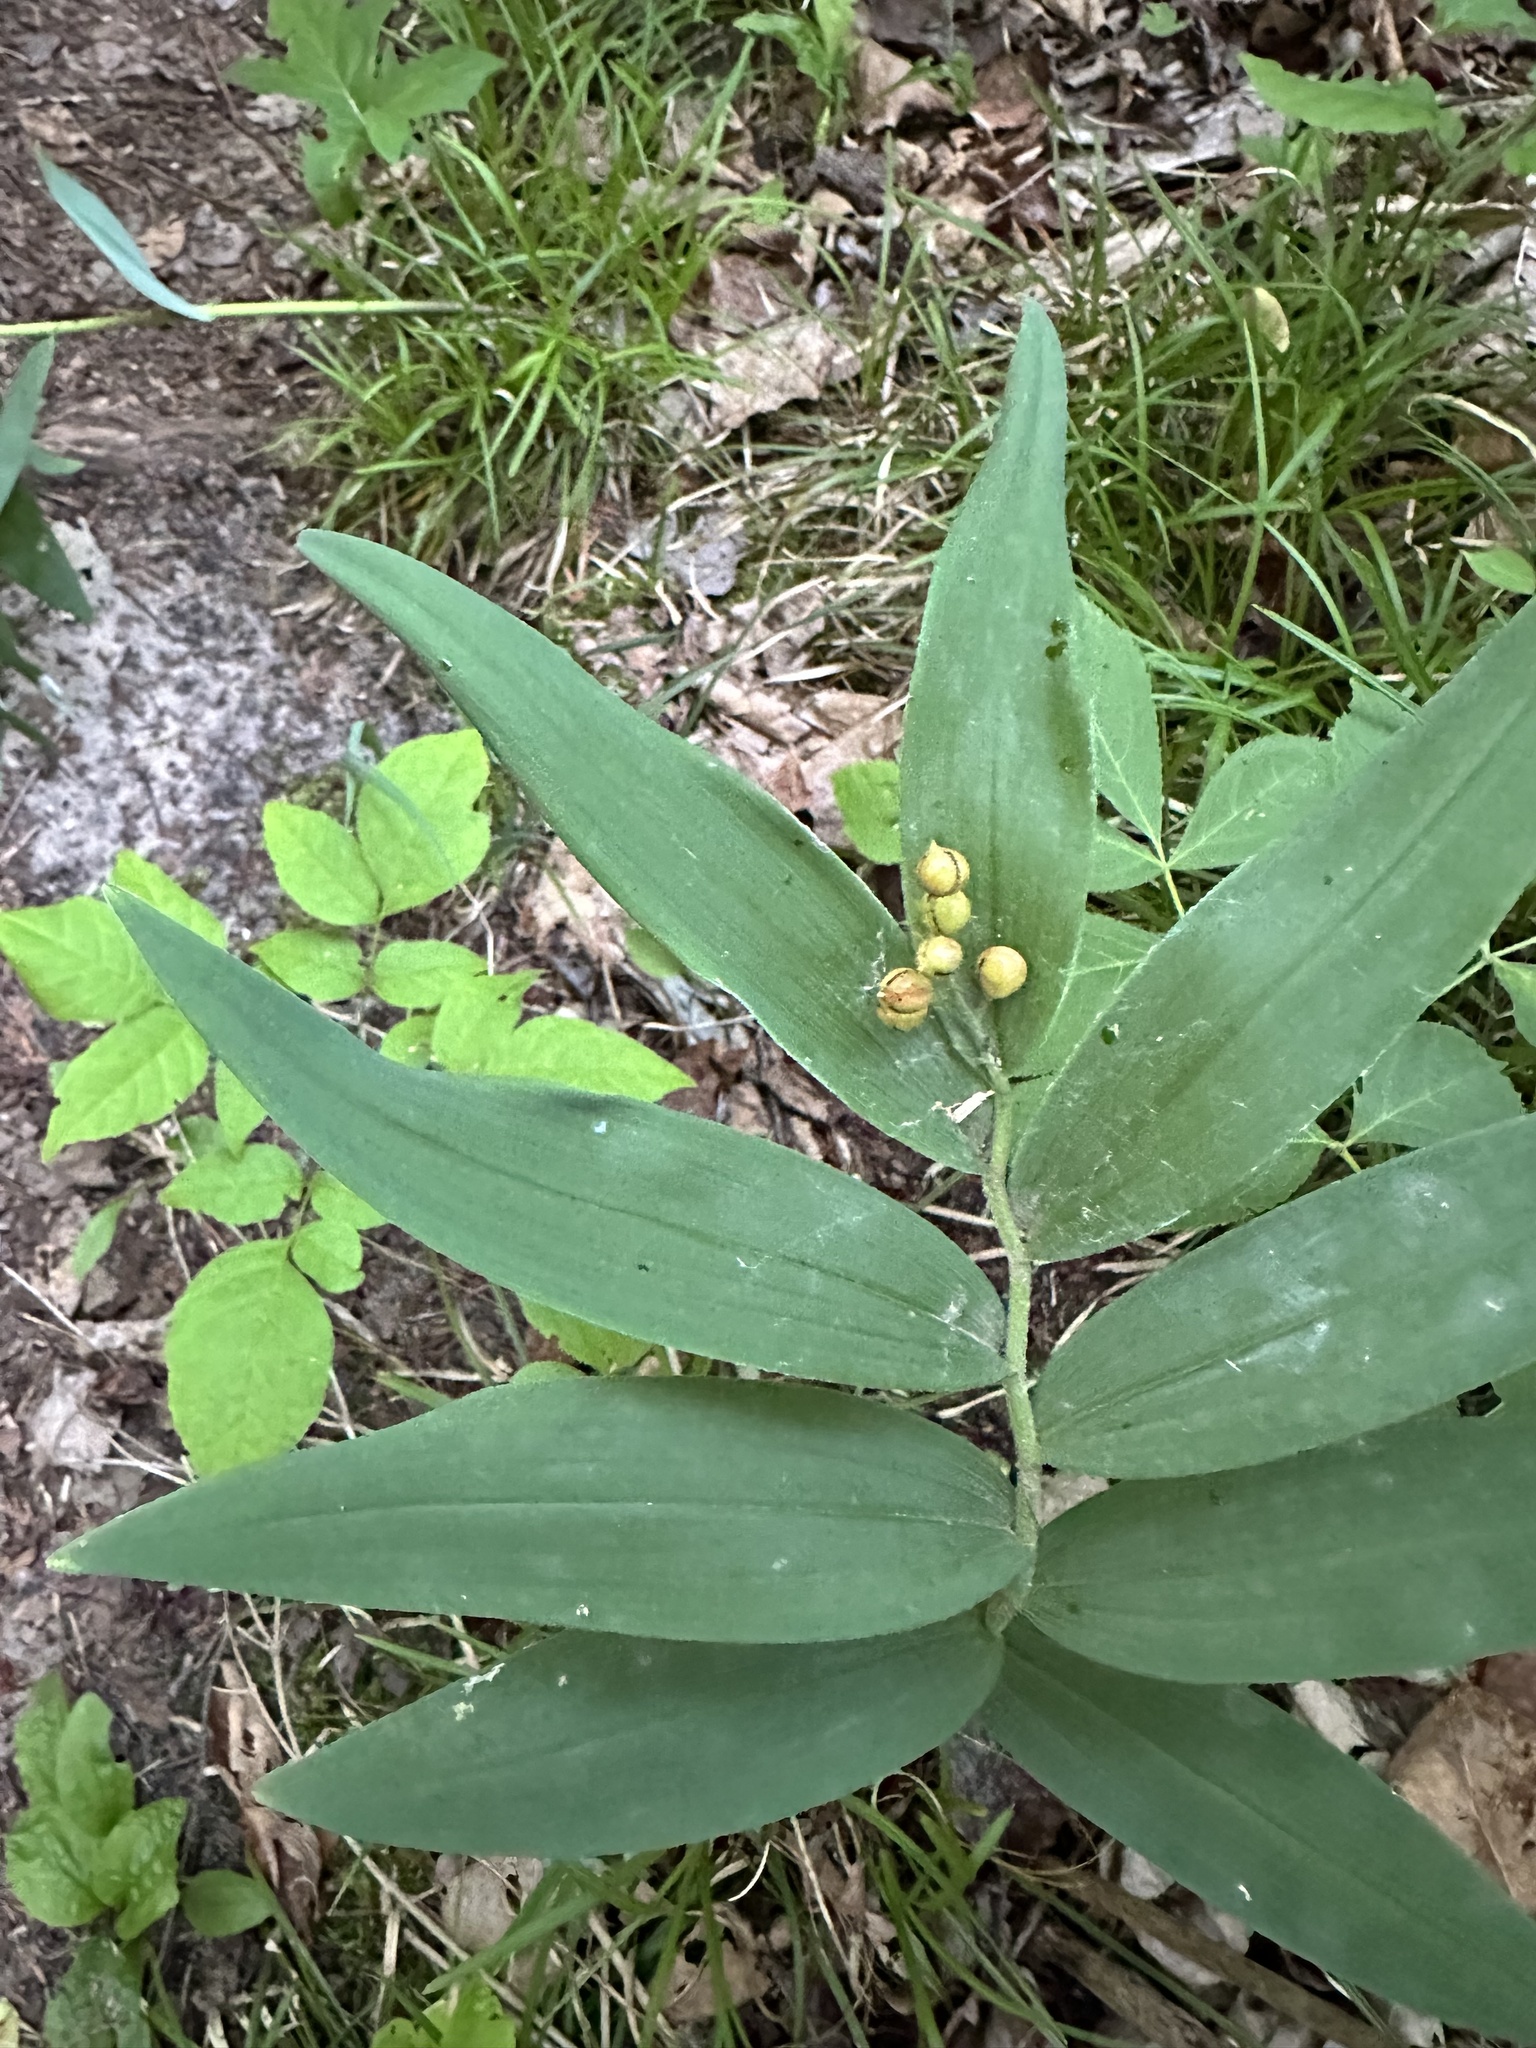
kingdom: Plantae
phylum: Tracheophyta
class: Liliopsida
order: Asparagales
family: Asparagaceae
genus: Maianthemum
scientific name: Maianthemum stellatum
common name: Little false solomon's seal
